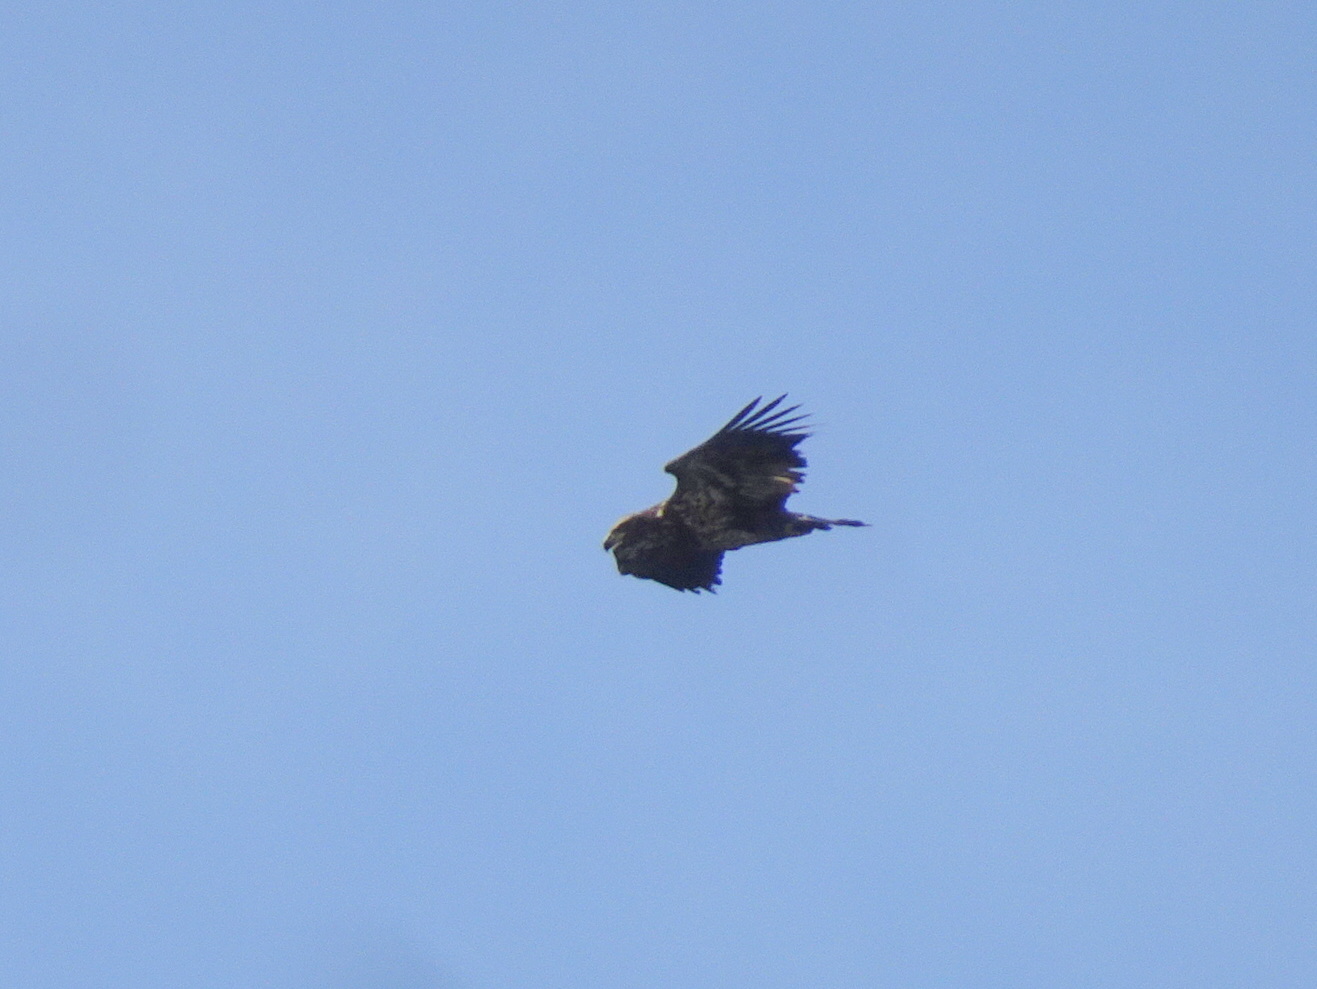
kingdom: Animalia
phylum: Chordata
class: Aves
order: Accipitriformes
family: Accipitridae
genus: Haliaeetus
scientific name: Haliaeetus leucocephalus
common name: Bald eagle
